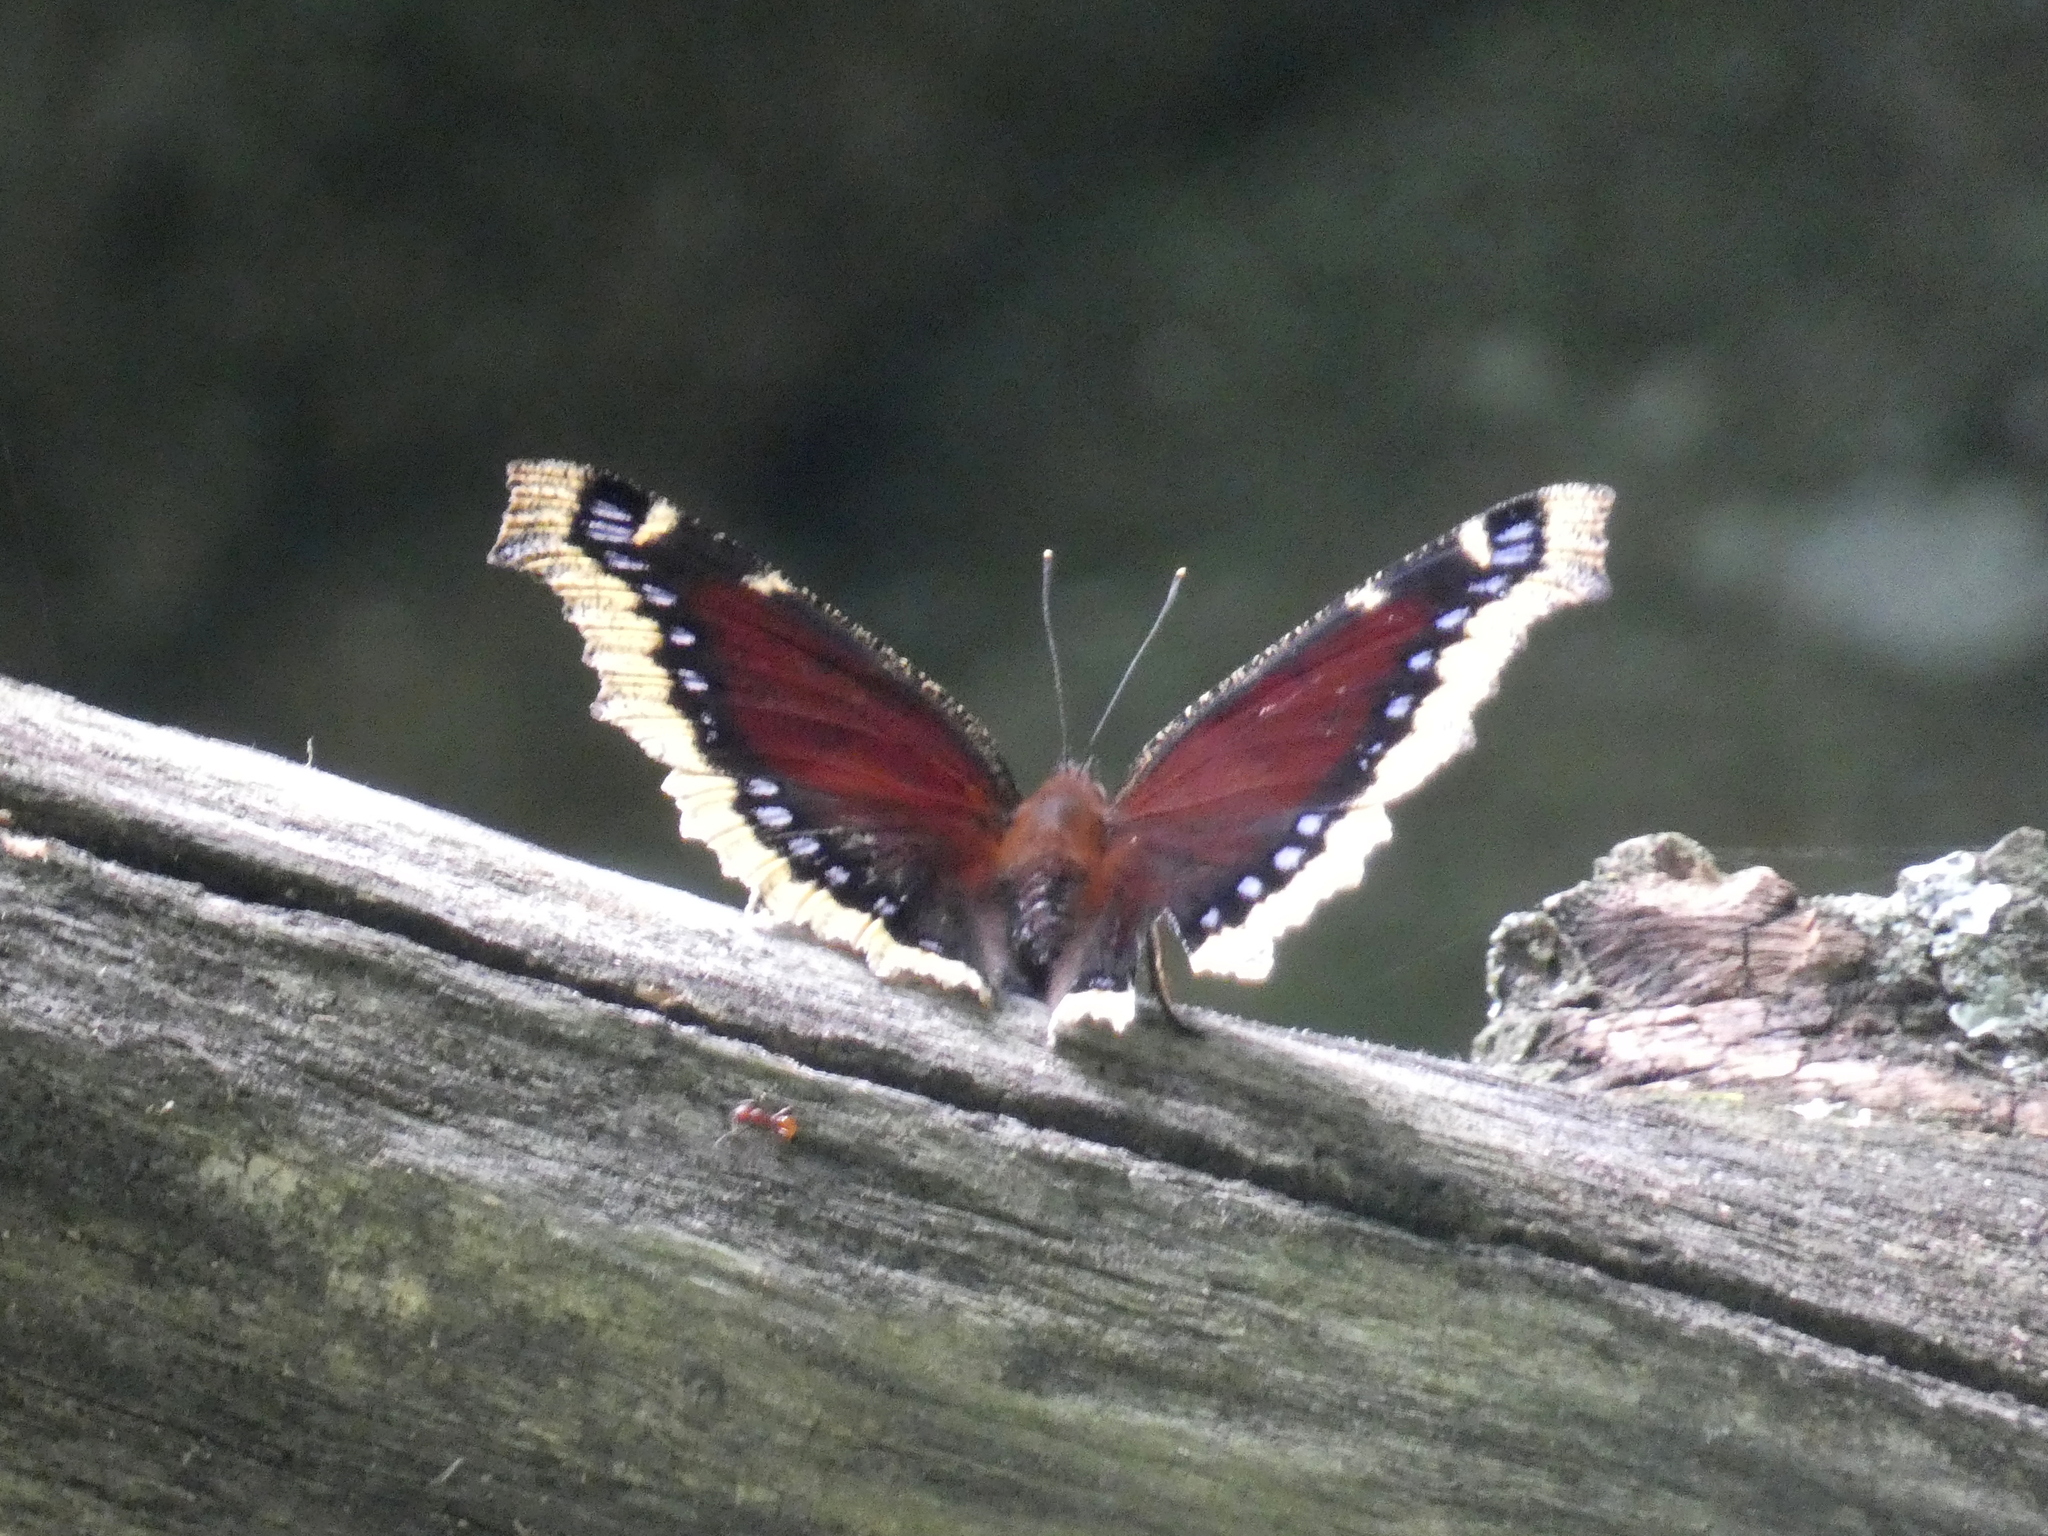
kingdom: Animalia
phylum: Arthropoda
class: Insecta
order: Lepidoptera
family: Nymphalidae
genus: Nymphalis
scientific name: Nymphalis antiopa
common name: Camberwell beauty
